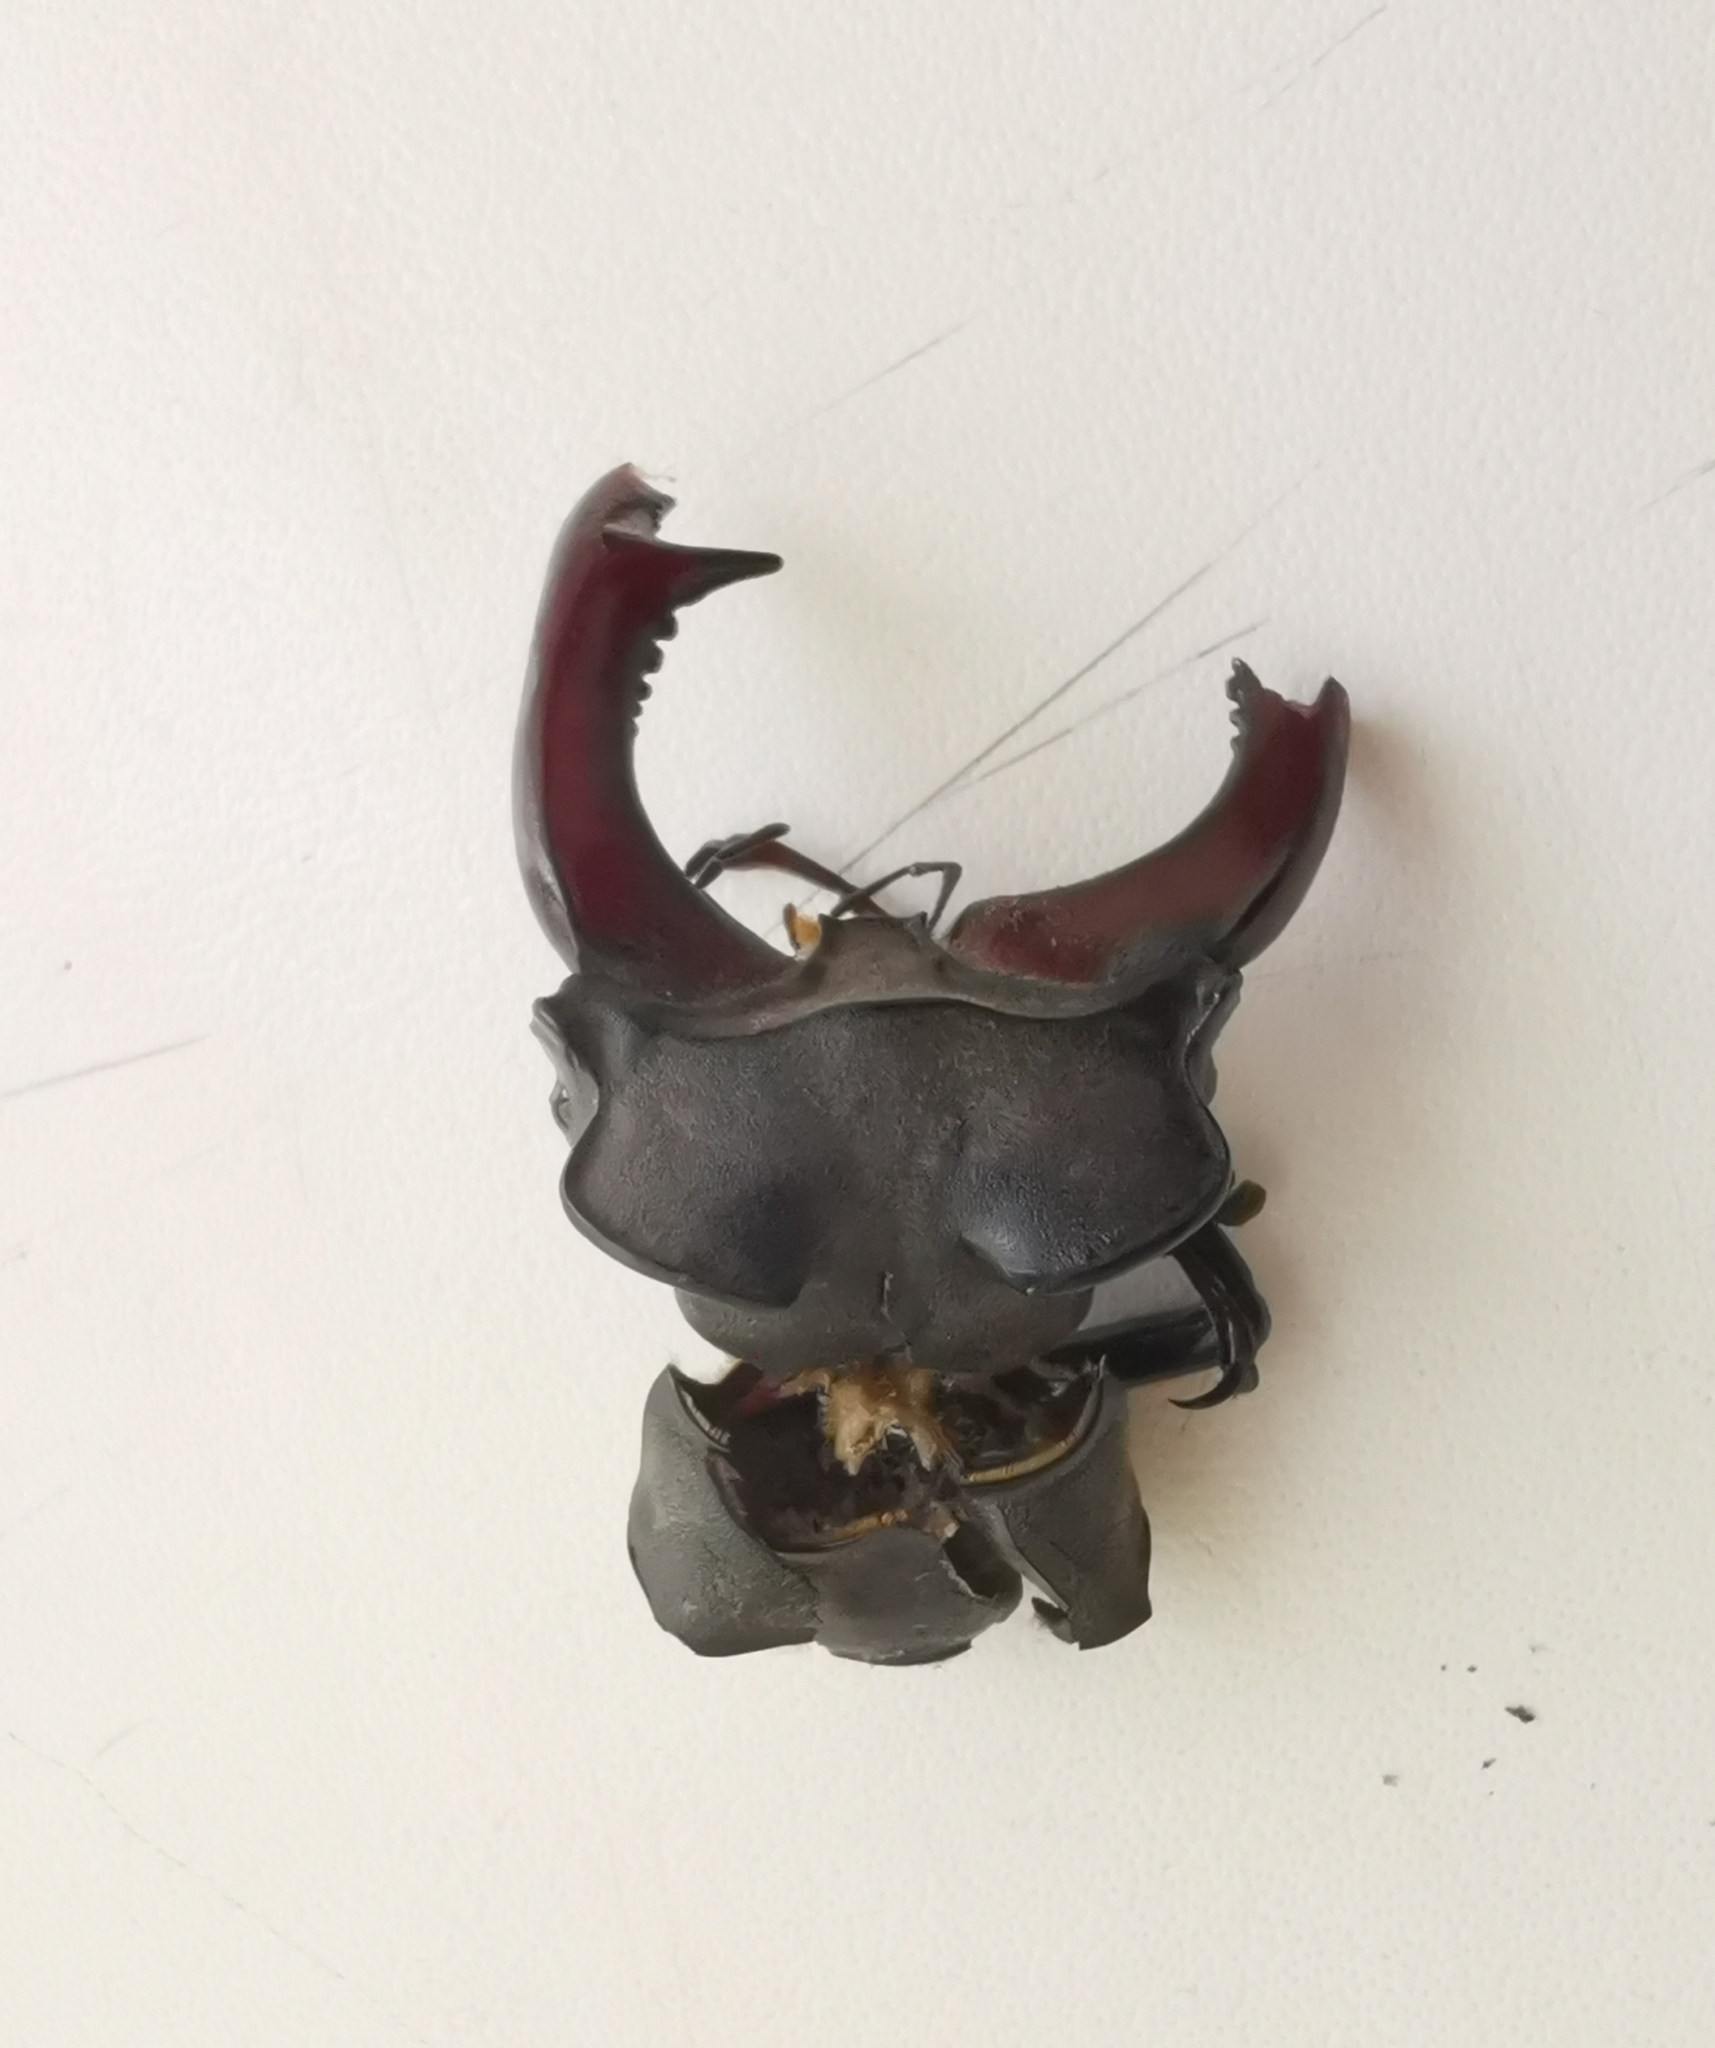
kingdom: Animalia
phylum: Arthropoda
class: Insecta
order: Coleoptera
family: Lucanidae
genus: Lucanus
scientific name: Lucanus cervus
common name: Stag beetle
